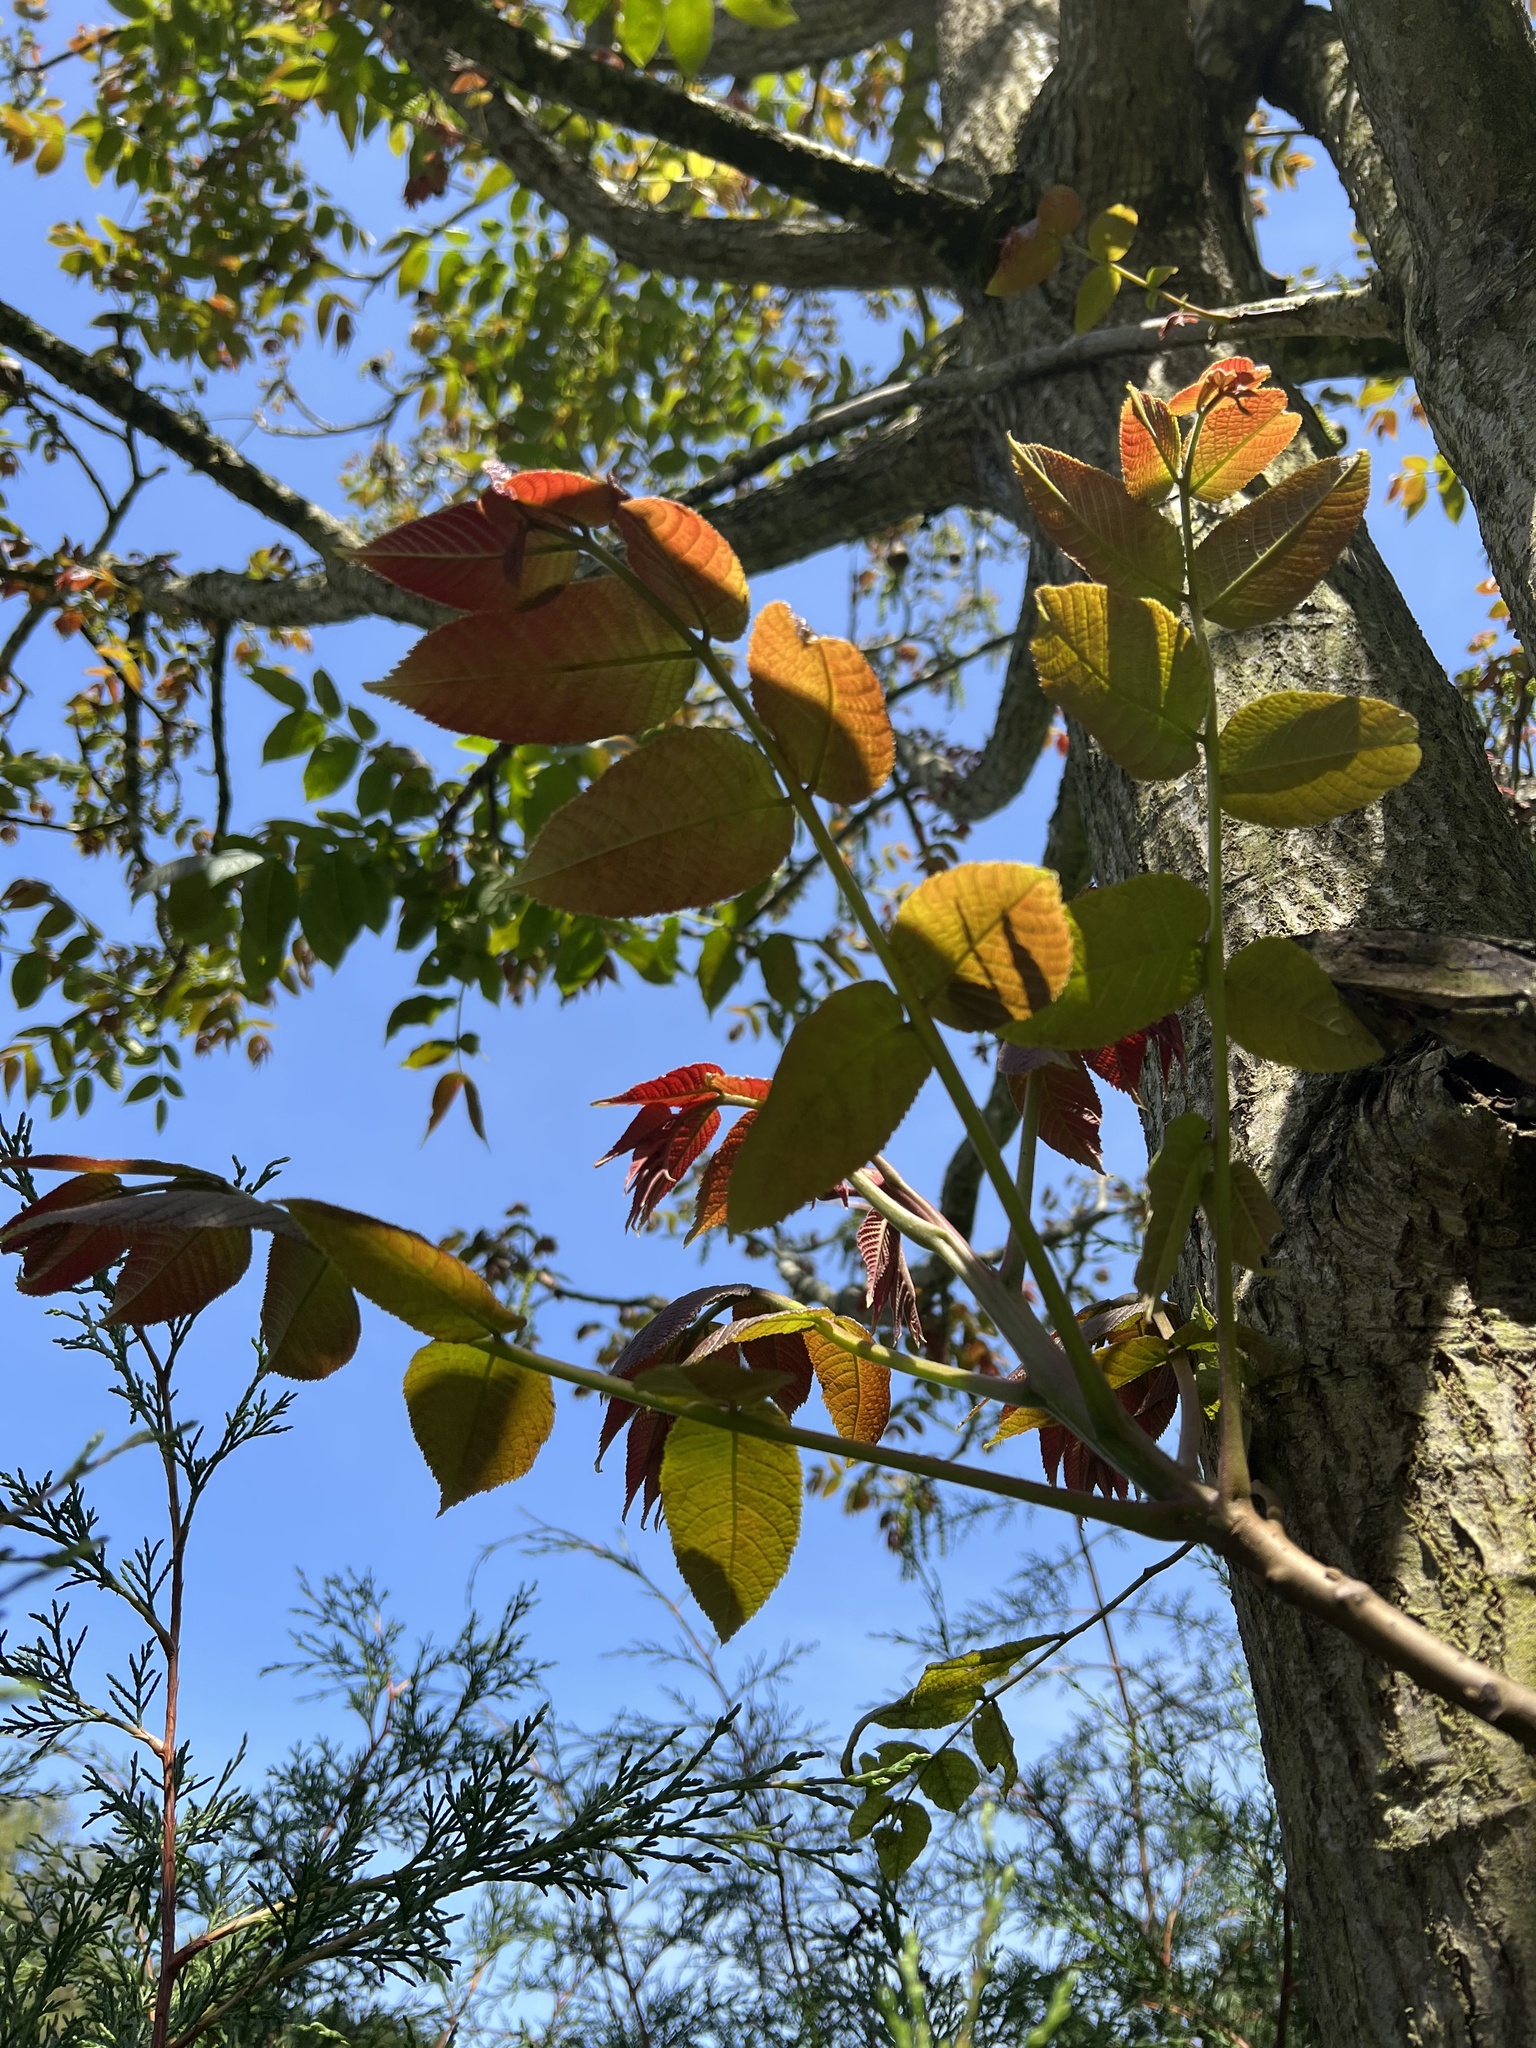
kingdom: Plantae
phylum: Tracheophyta
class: Magnoliopsida
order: Fagales
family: Juglandaceae
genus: Juglans
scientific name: Juglans neotropica
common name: Andean walnut
